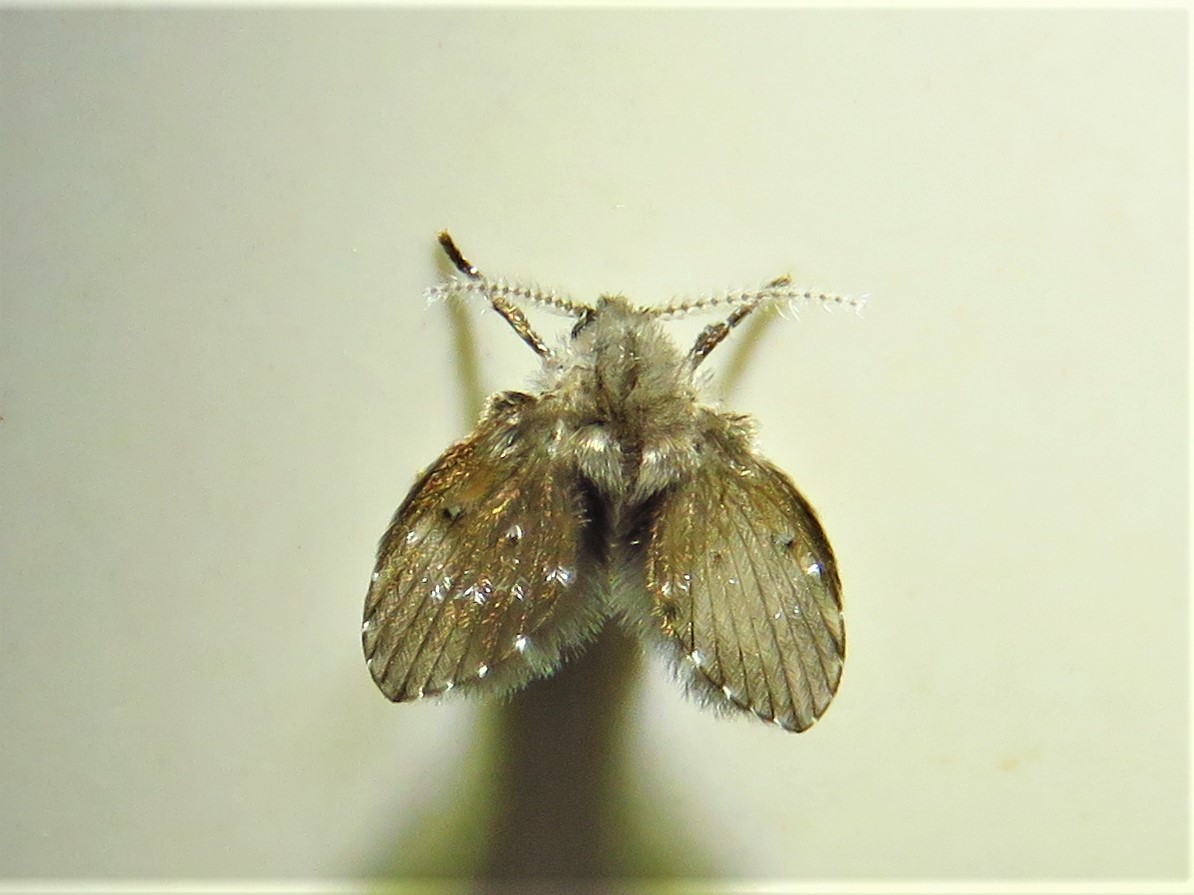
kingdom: Animalia
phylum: Arthropoda
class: Insecta
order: Diptera
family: Psychodidae
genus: Clogmia
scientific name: Clogmia albipunctatus
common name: White-spotted moth fly
